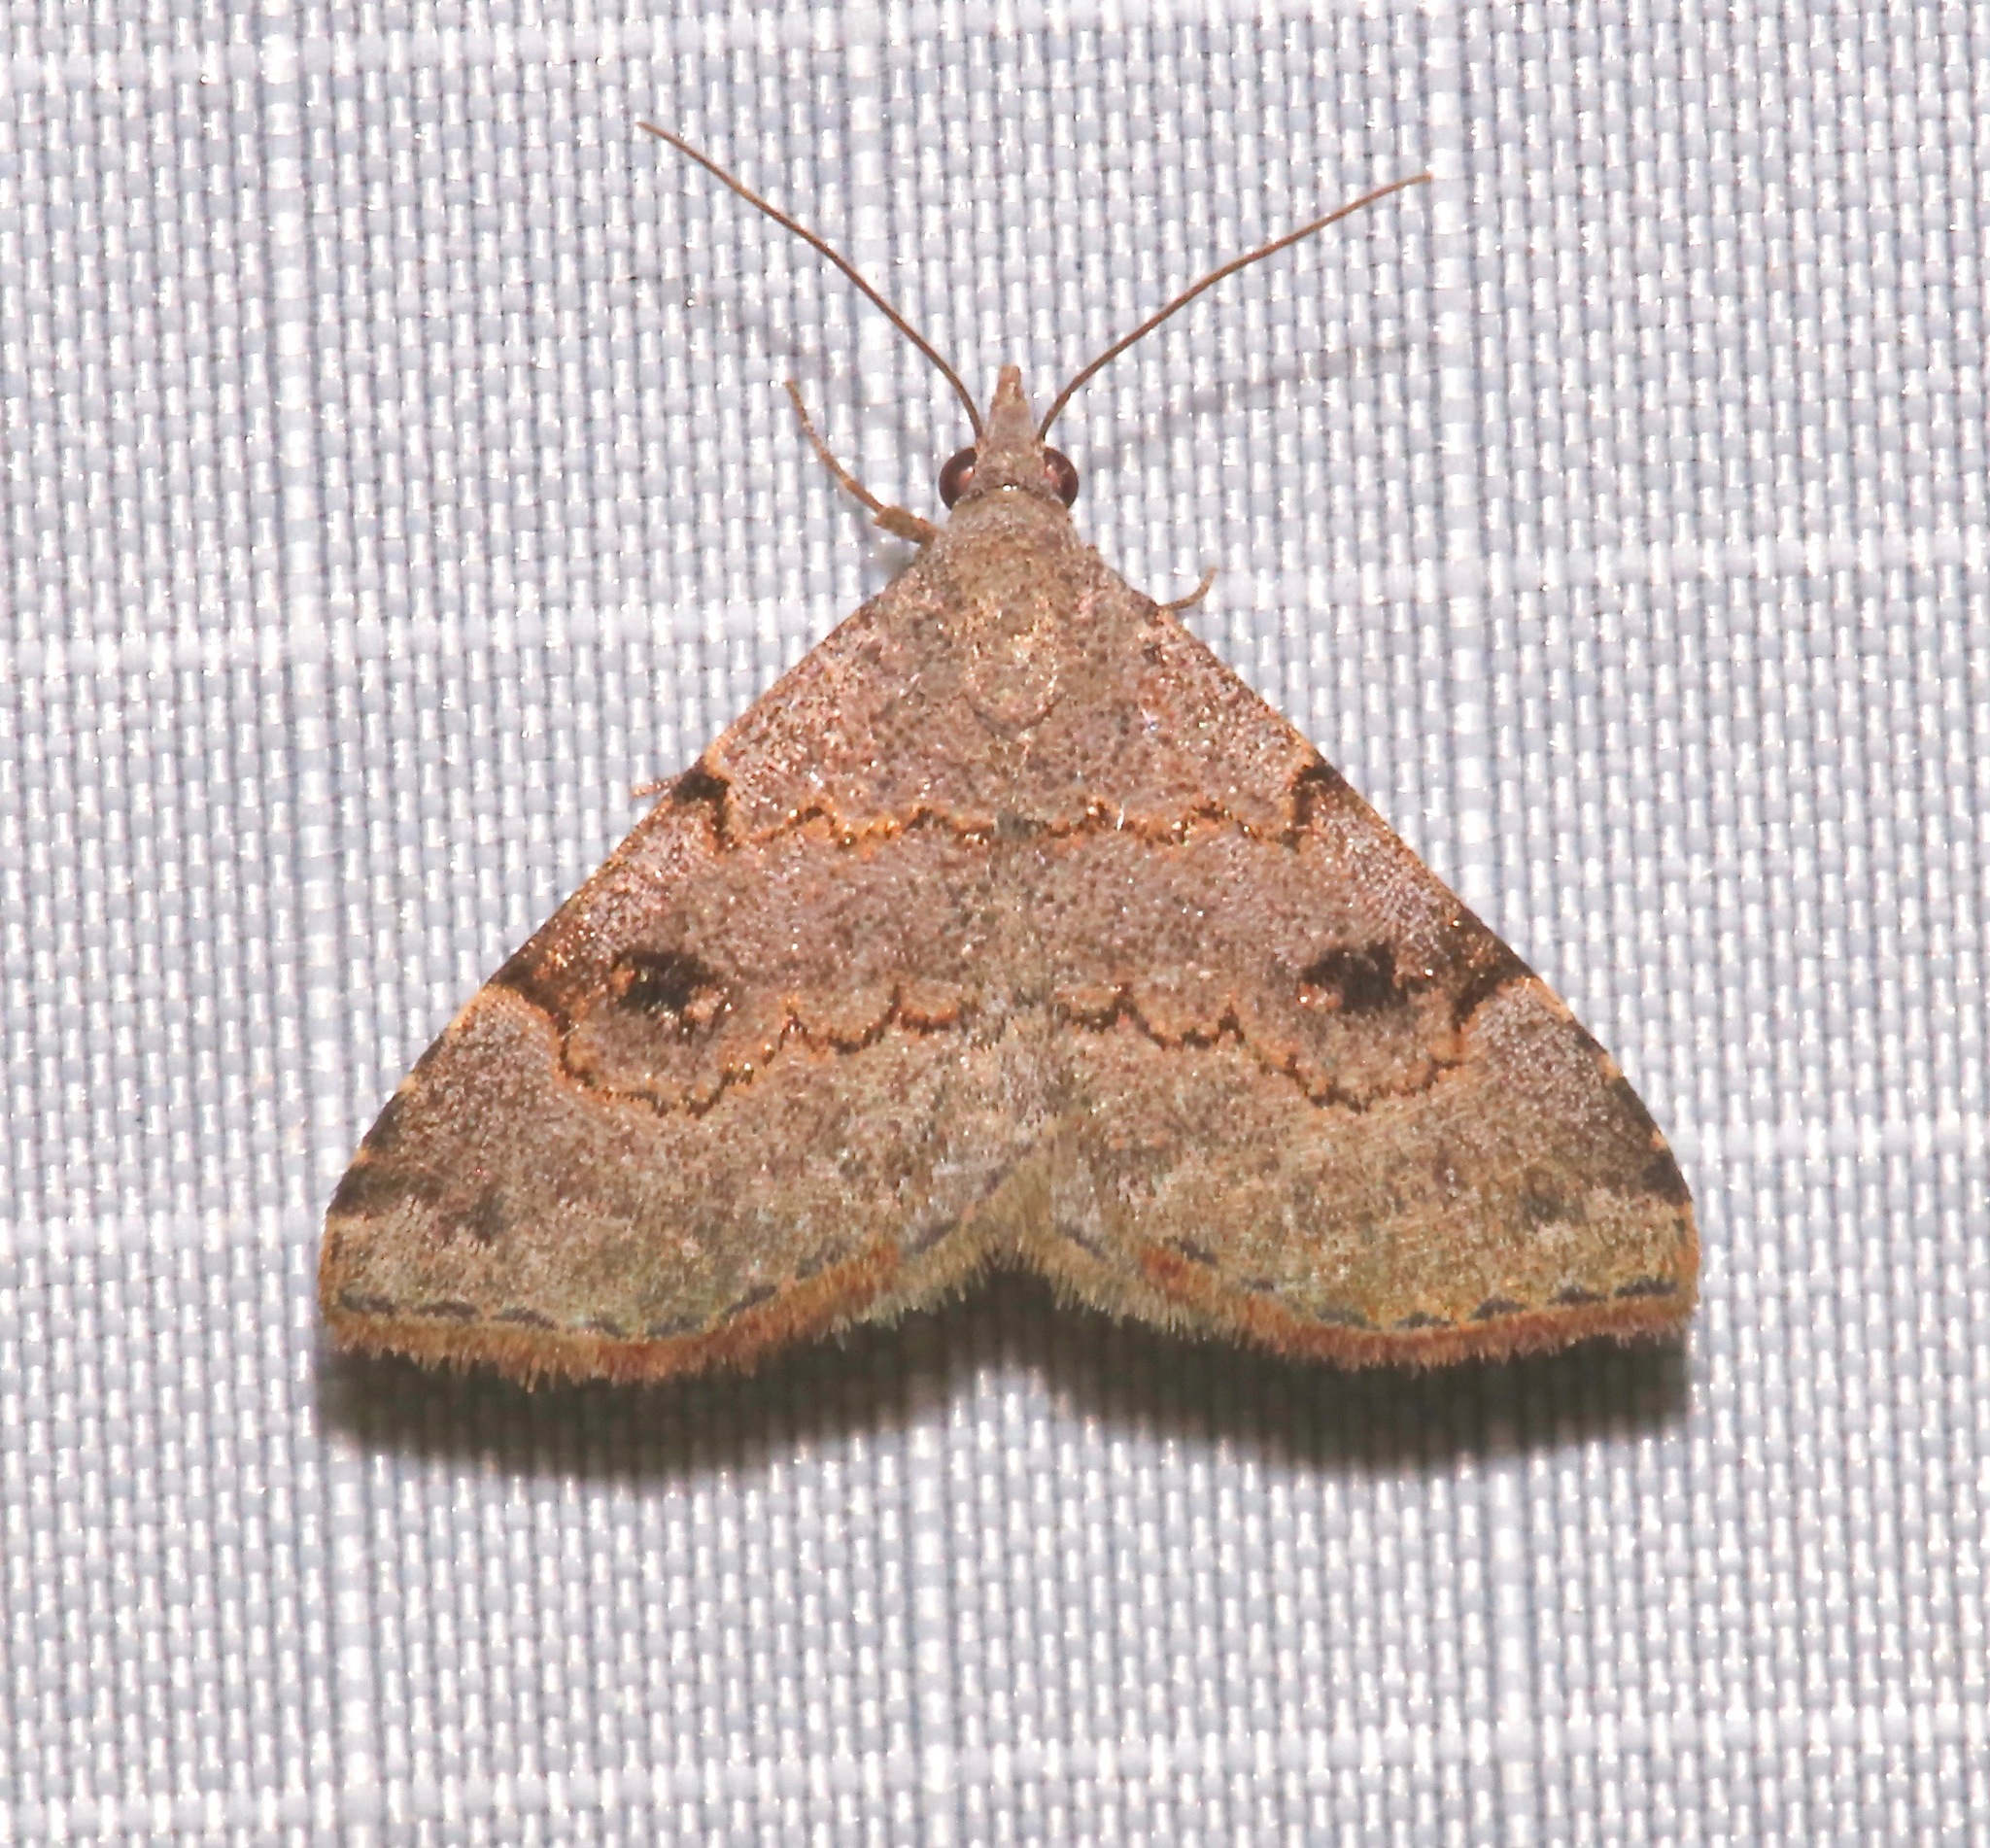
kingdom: Animalia
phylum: Arthropoda
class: Insecta
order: Lepidoptera
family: Erebidae
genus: Nychioptera
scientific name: Nychioptera noctuidalis
